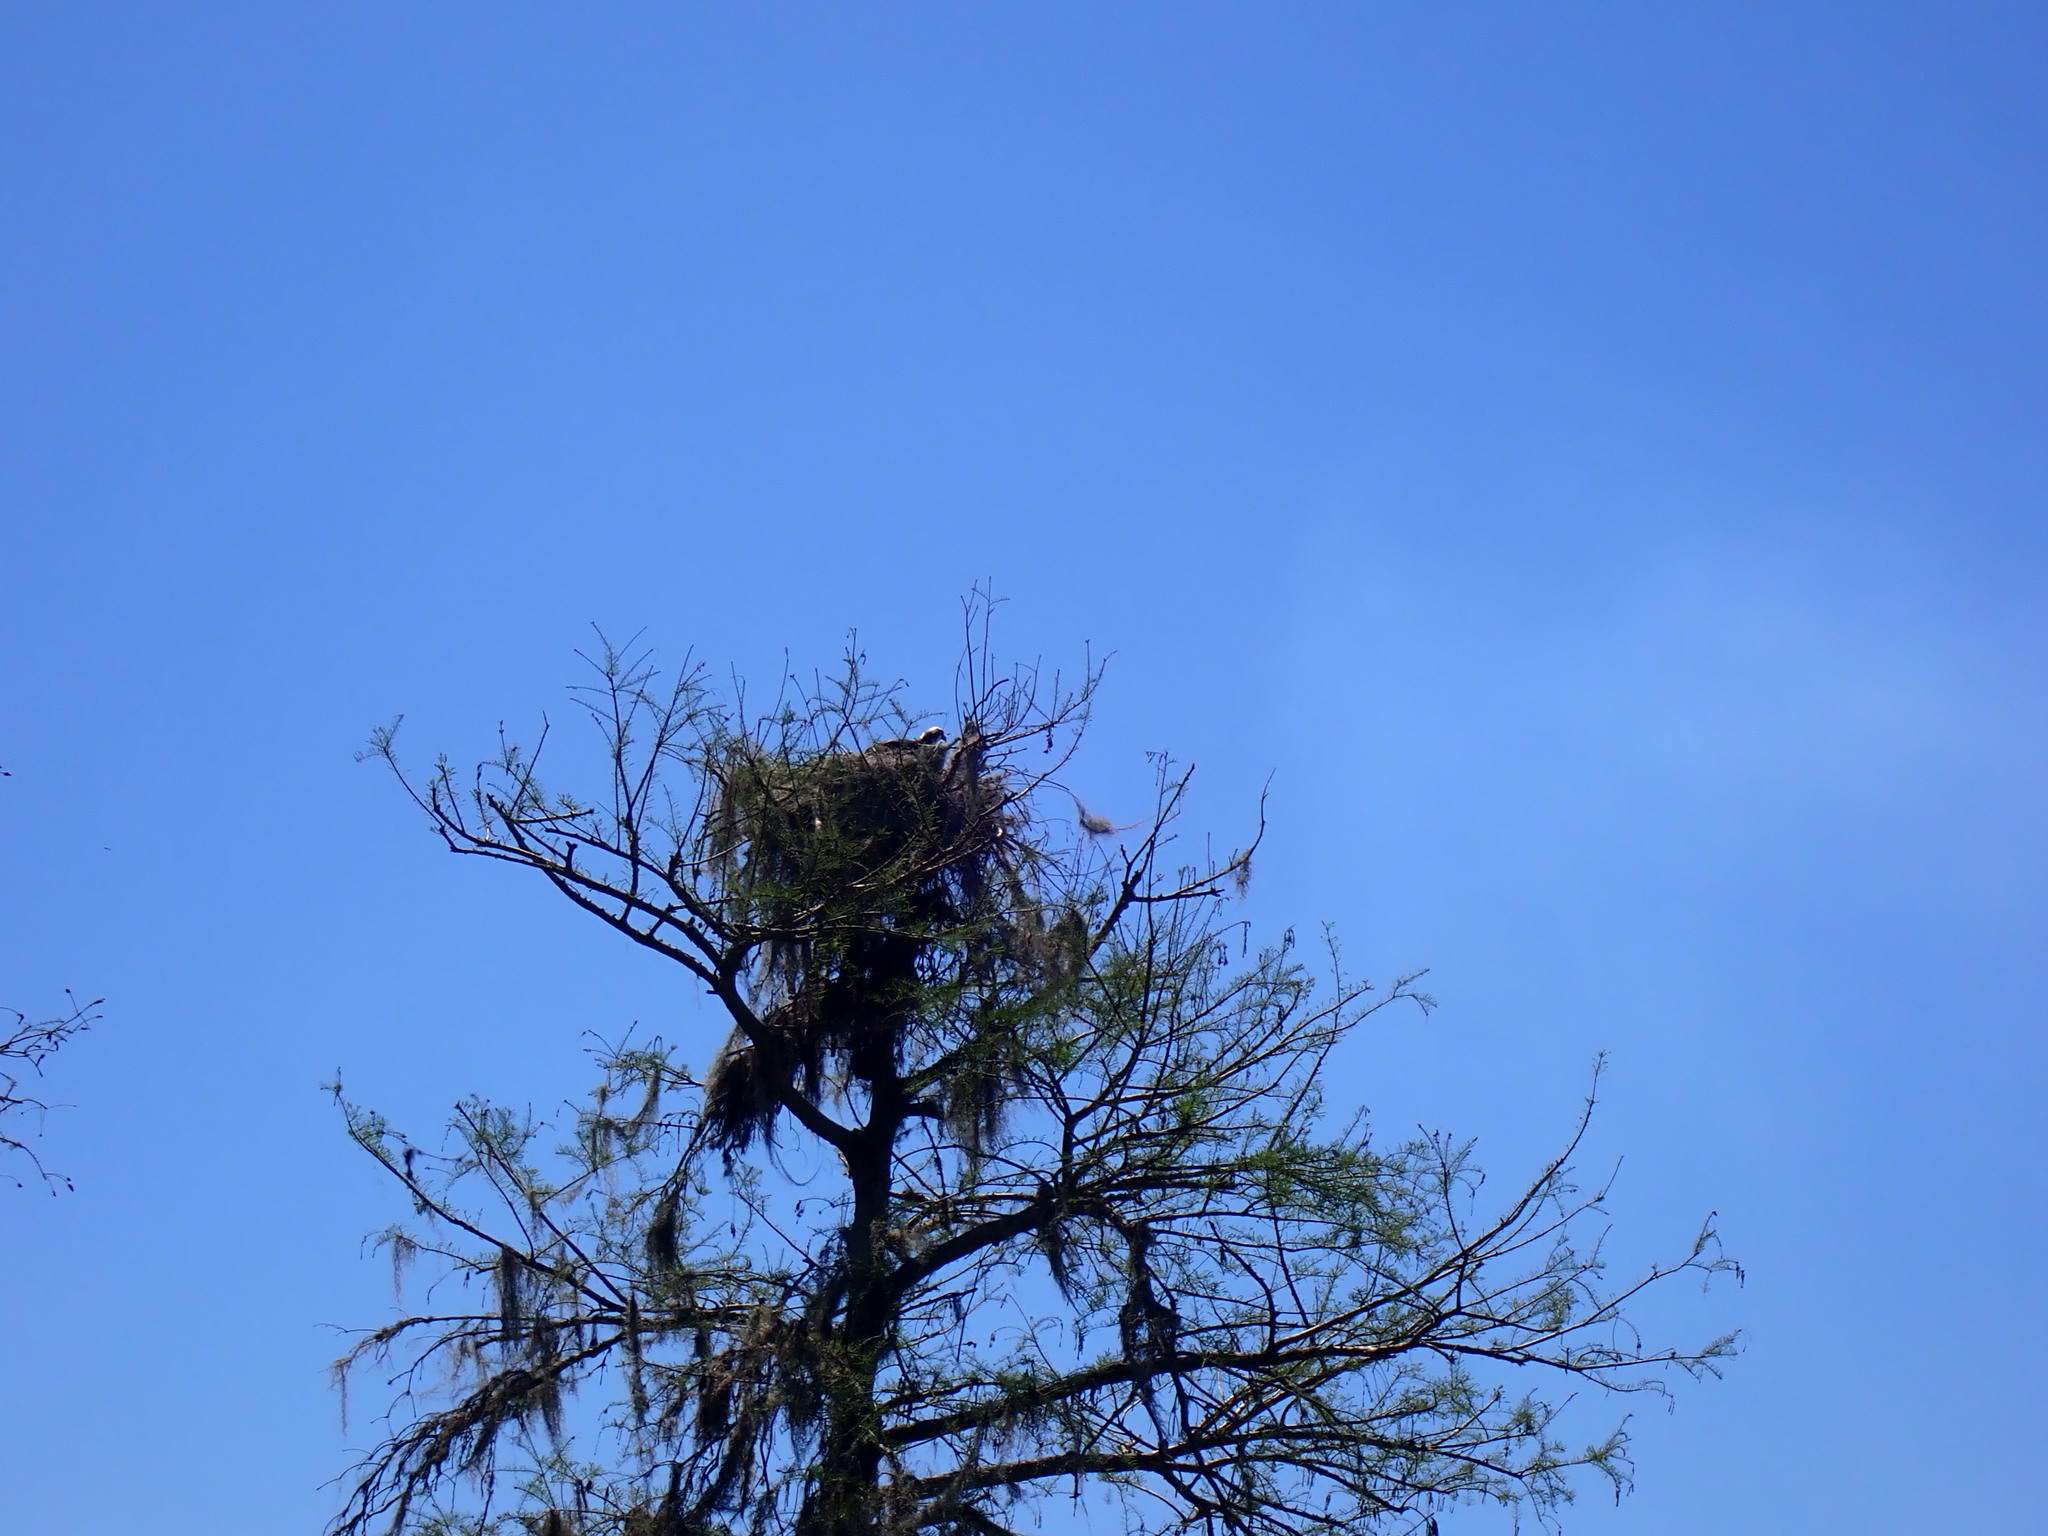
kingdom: Animalia
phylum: Chordata
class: Aves
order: Accipitriformes
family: Pandionidae
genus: Pandion
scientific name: Pandion haliaetus
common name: Osprey
